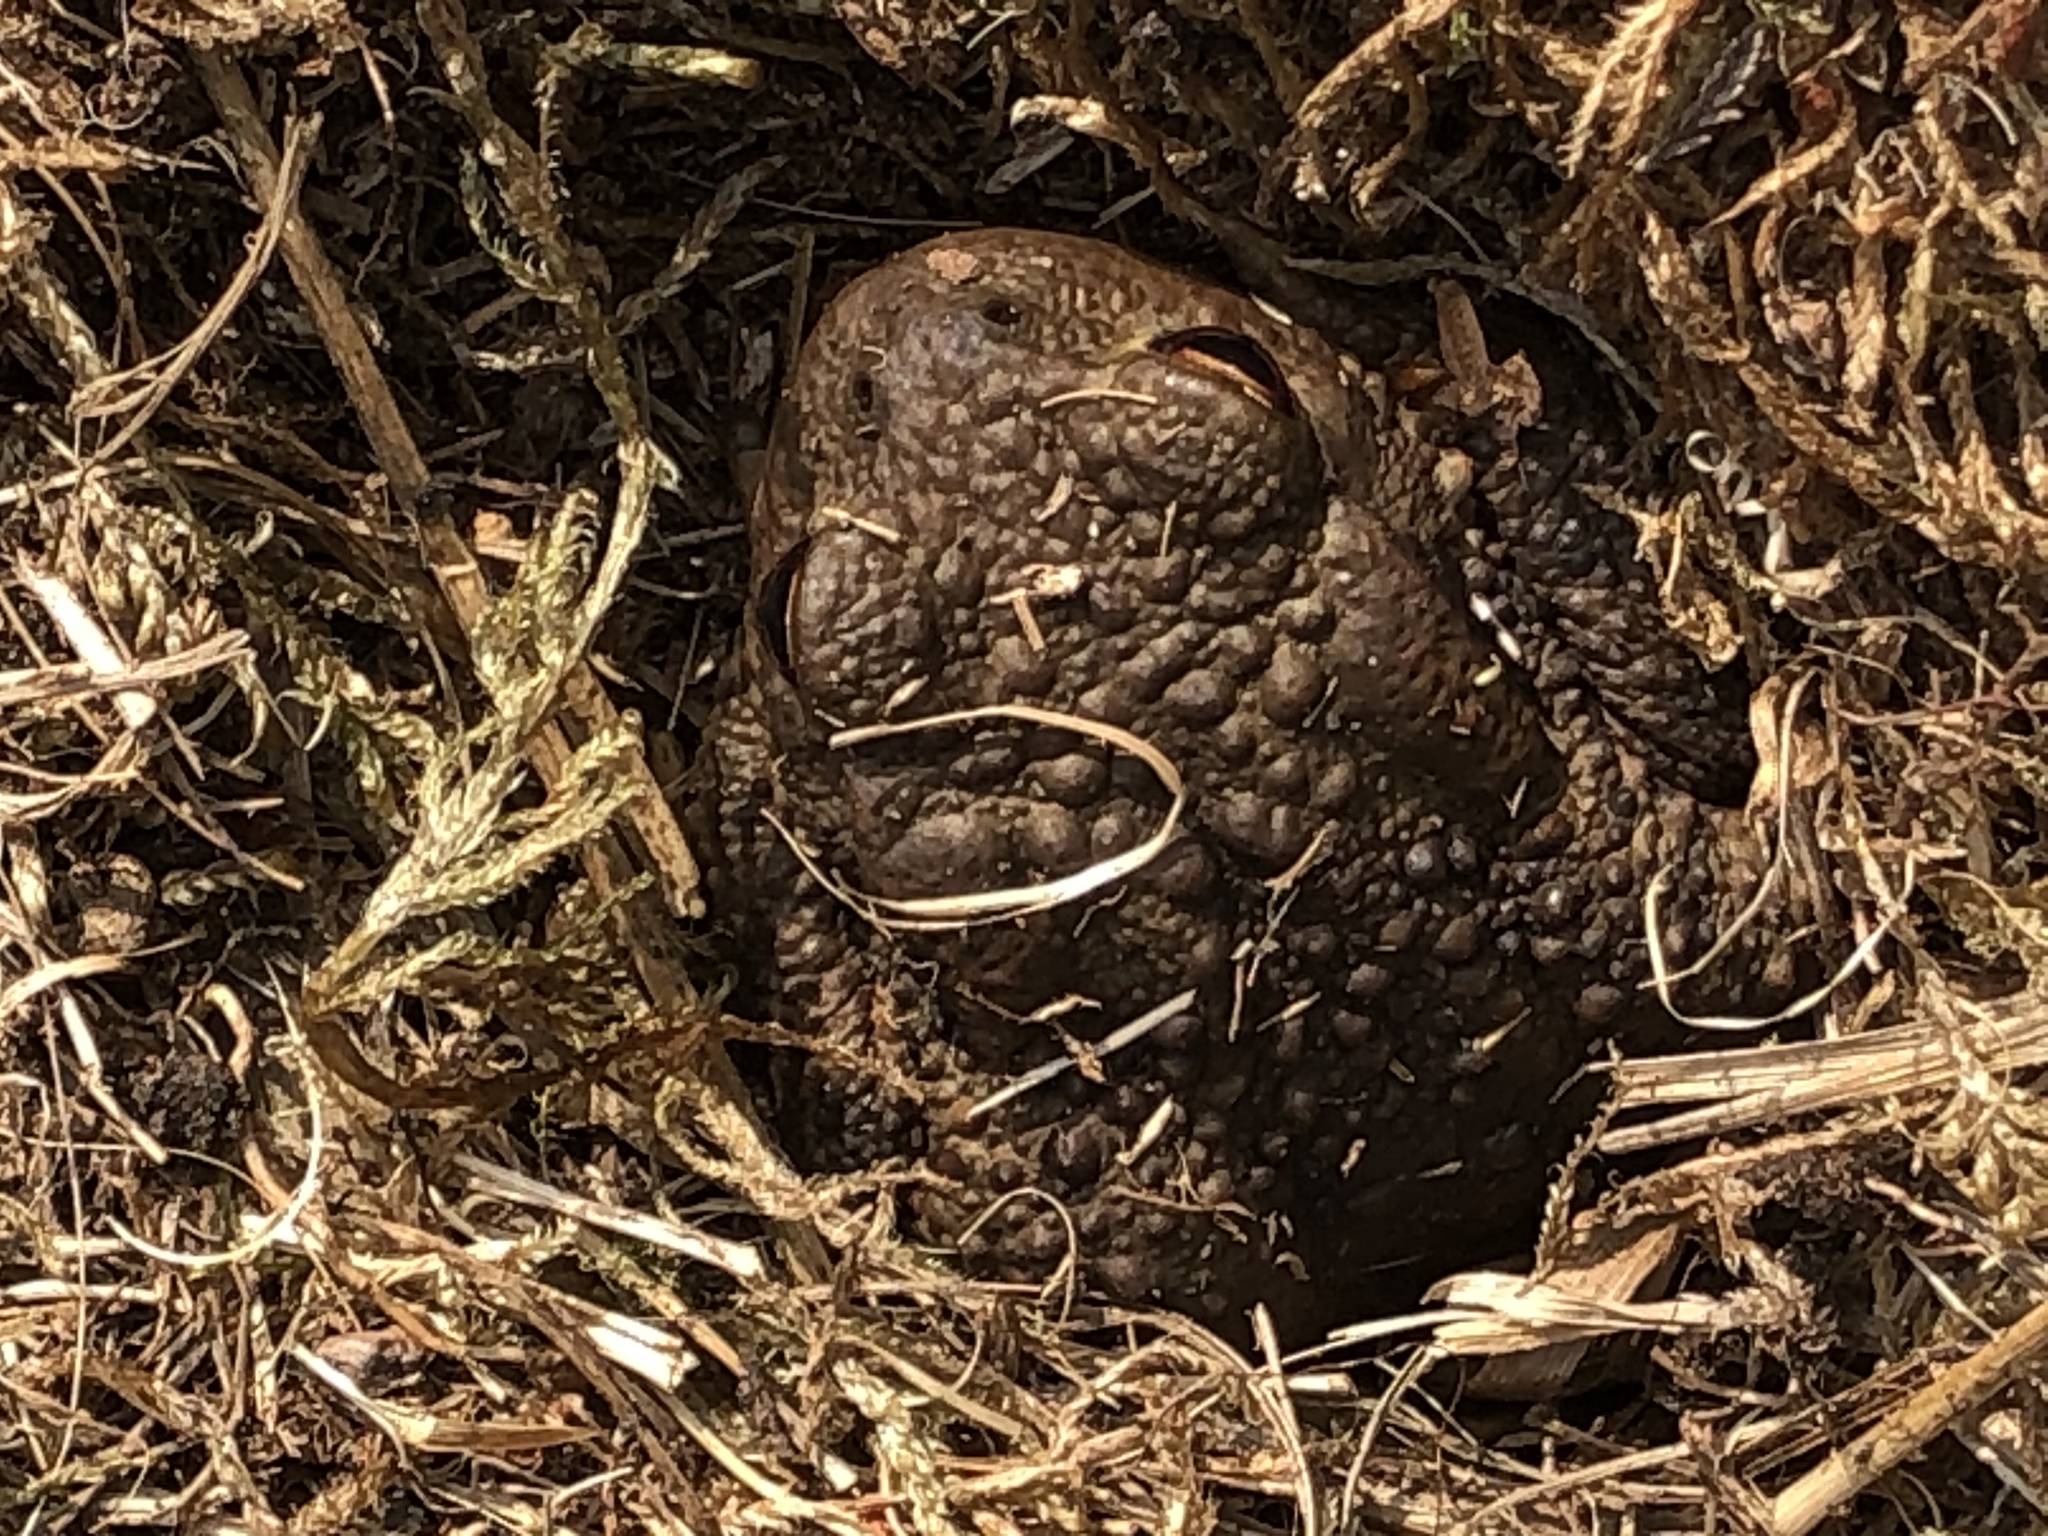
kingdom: Animalia
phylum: Chordata
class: Amphibia
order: Anura
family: Bufonidae
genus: Bufo
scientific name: Bufo bufo
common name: Common toad
